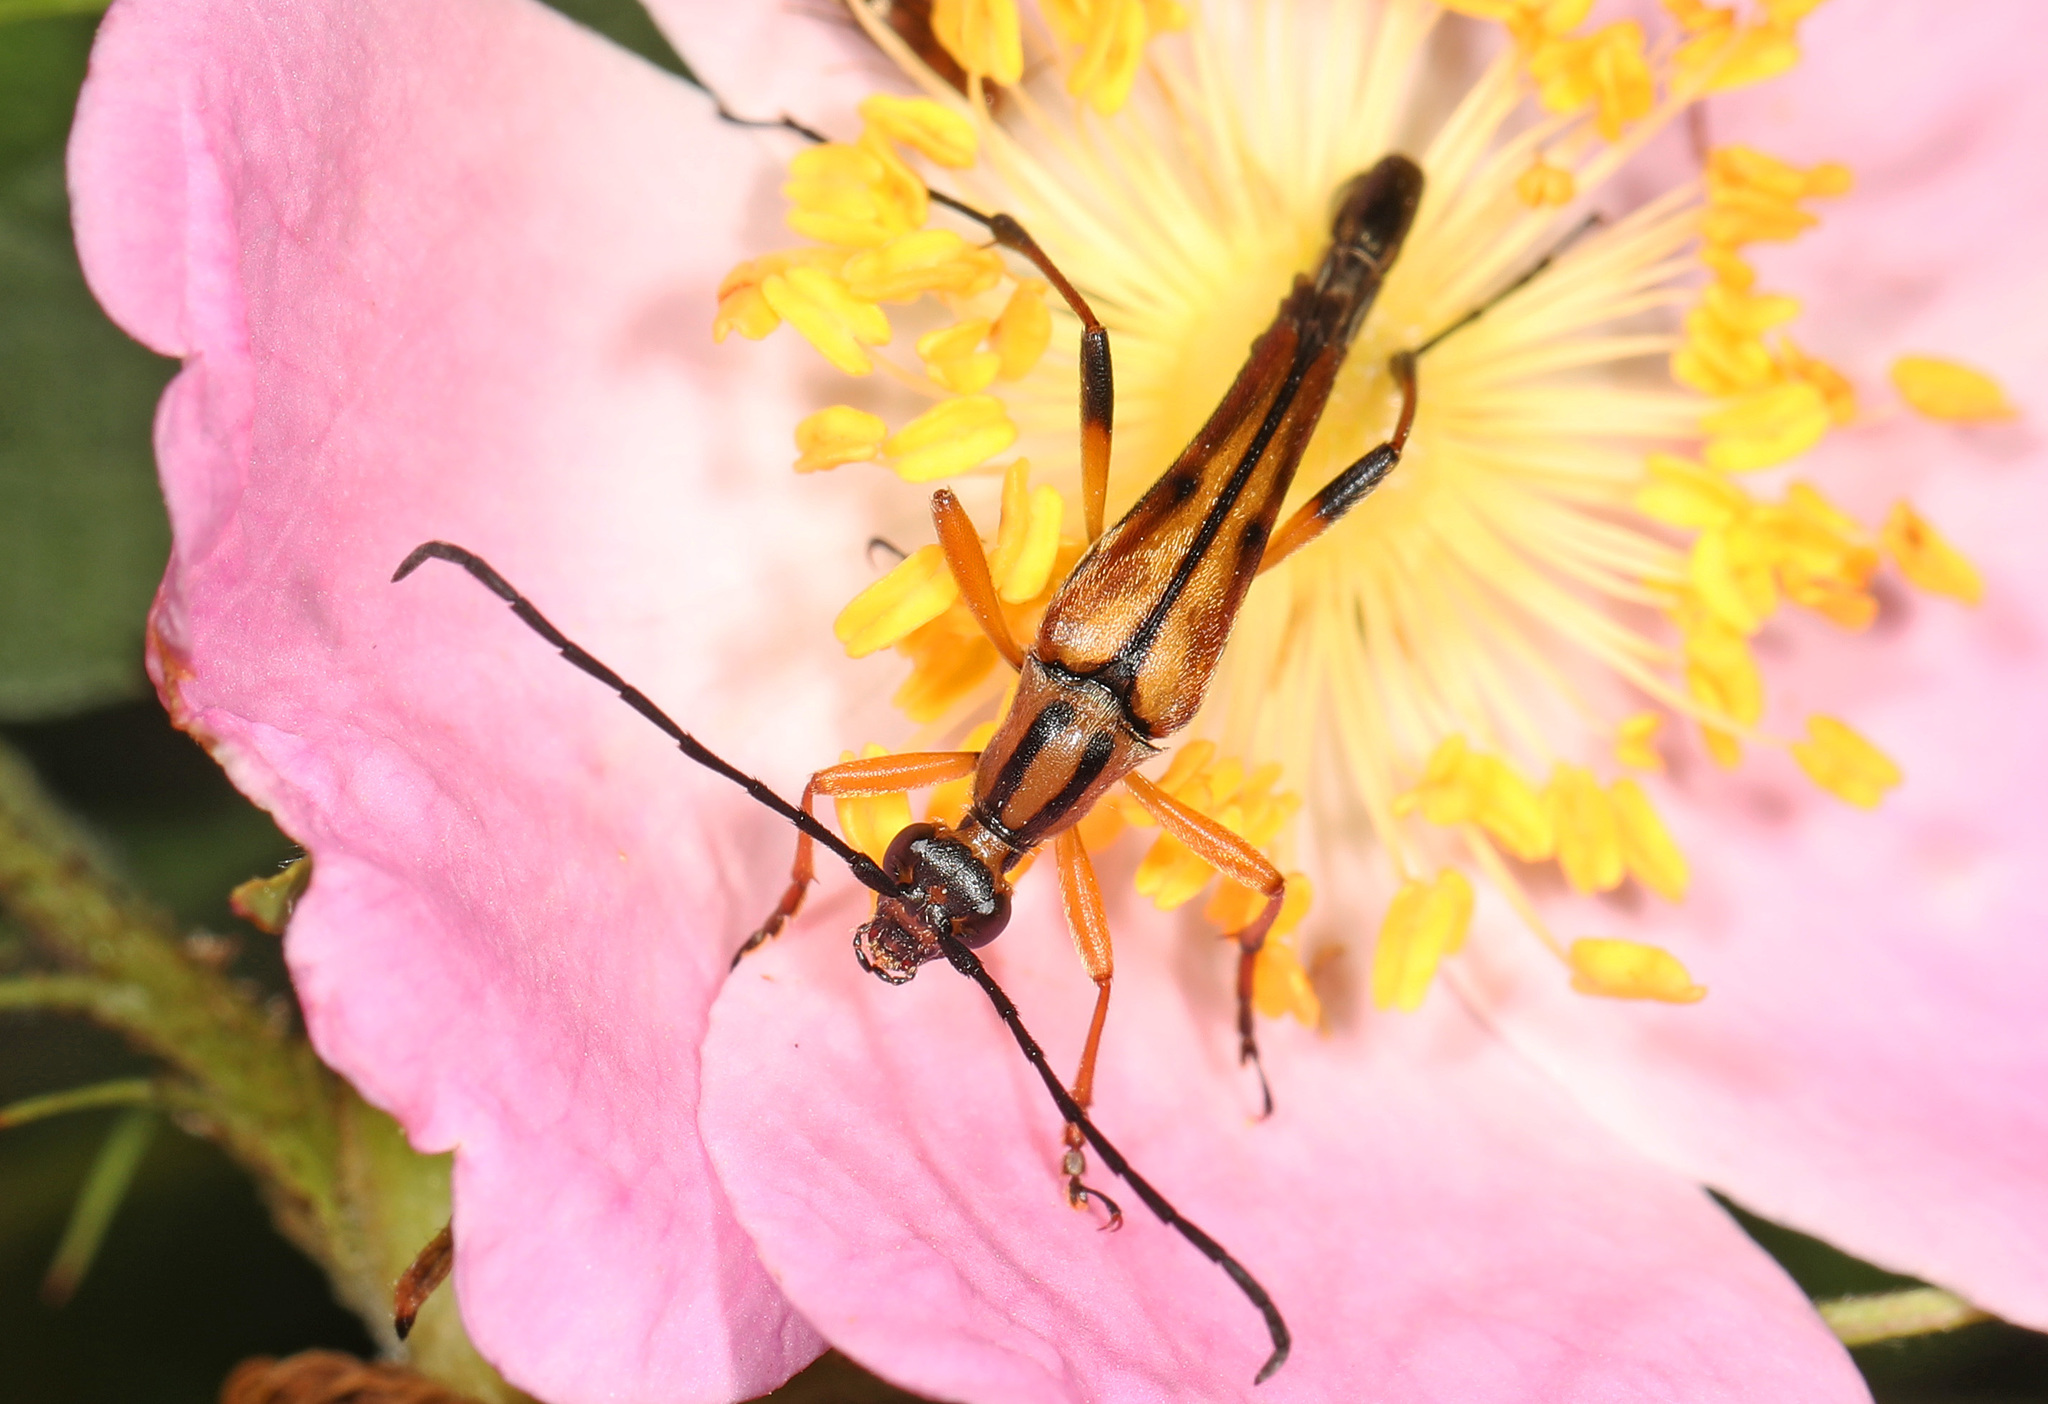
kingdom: Animalia
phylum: Arthropoda
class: Insecta
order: Coleoptera
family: Cerambycidae
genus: Strangalia
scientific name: Strangalia famelica
